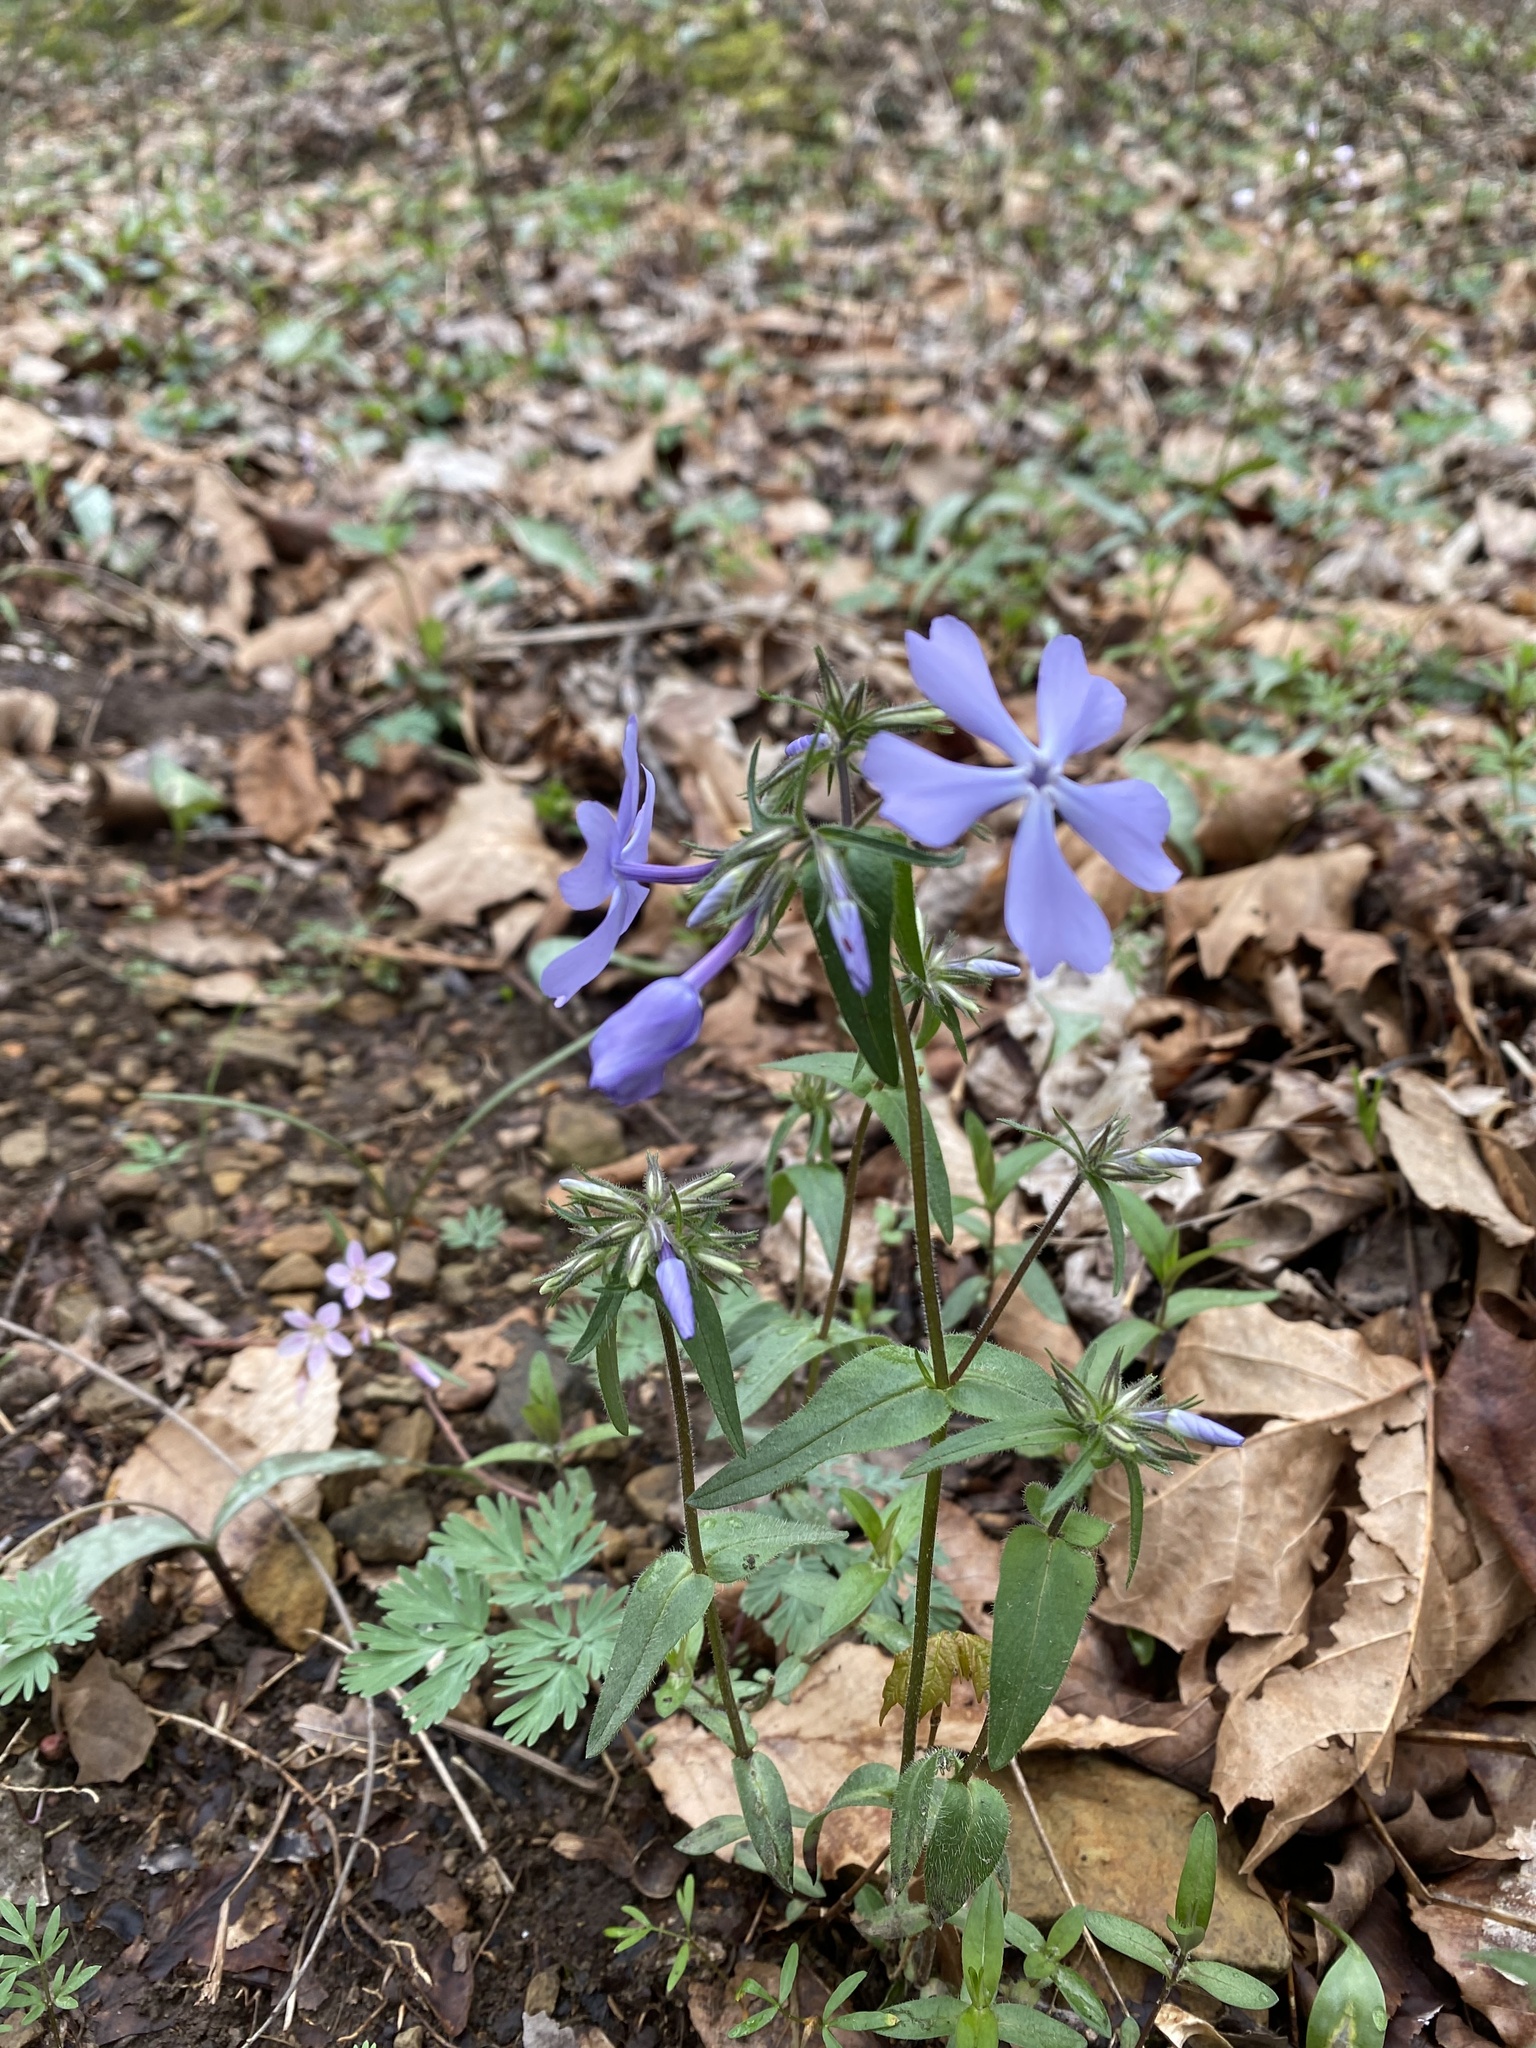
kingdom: Plantae
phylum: Tracheophyta
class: Magnoliopsida
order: Ericales
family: Polemoniaceae
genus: Phlox
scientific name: Phlox divaricata
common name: Blue phlox
